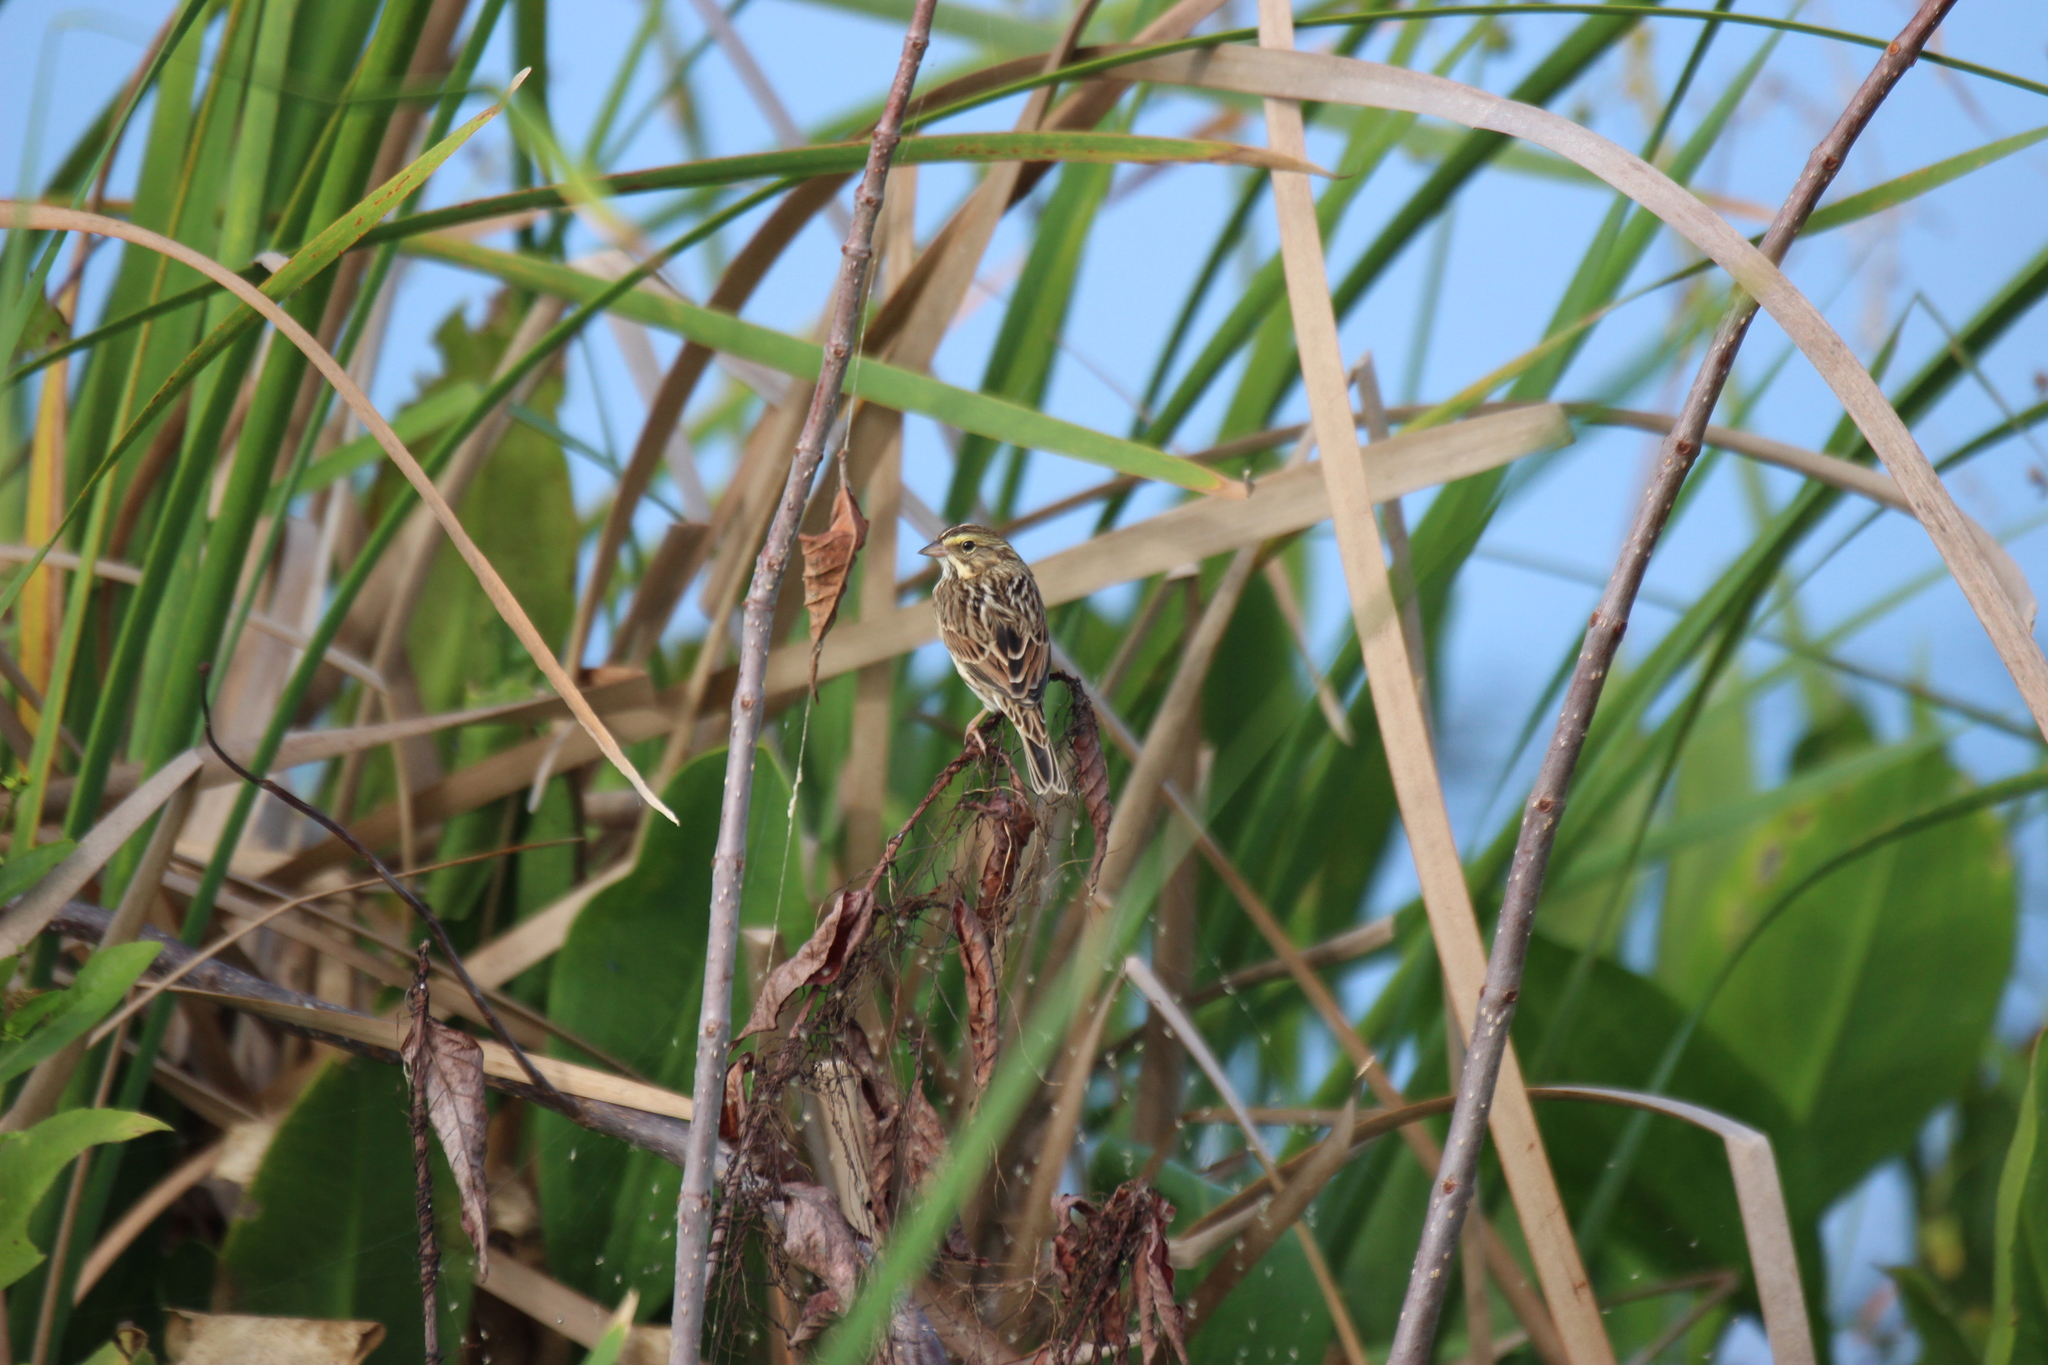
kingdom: Animalia
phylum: Chordata
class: Aves
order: Passeriformes
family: Passerellidae
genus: Passerculus
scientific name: Passerculus sandwichensis
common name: Savannah sparrow
